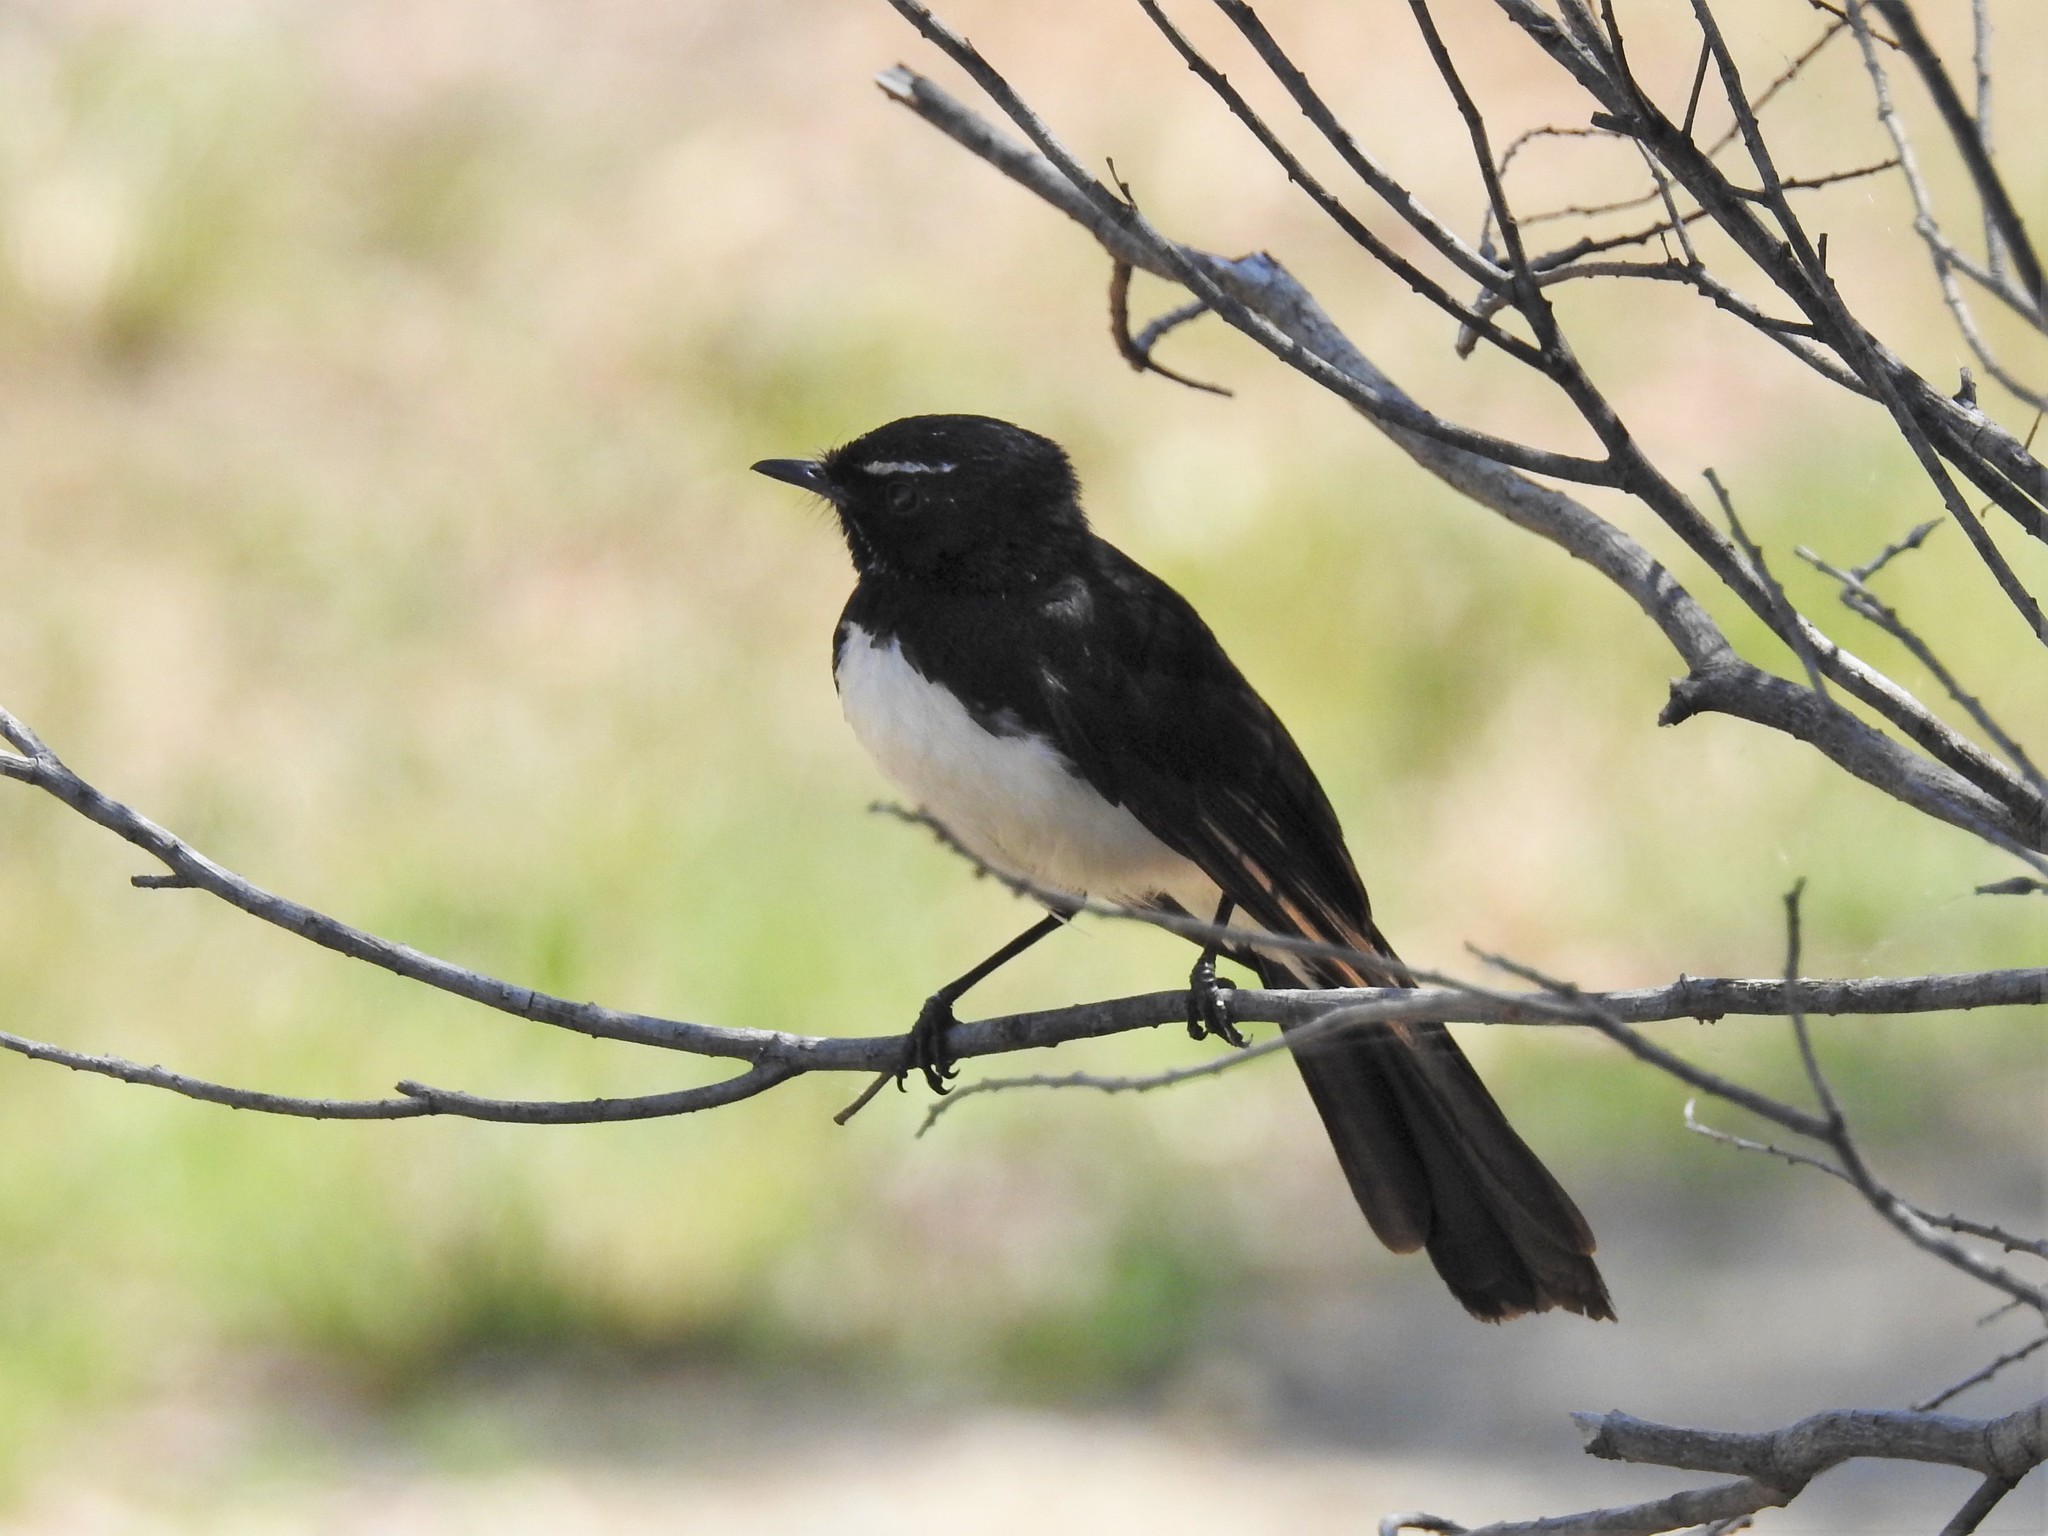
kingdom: Animalia
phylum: Chordata
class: Aves
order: Passeriformes
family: Rhipiduridae
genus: Rhipidura
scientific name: Rhipidura leucophrys
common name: Willie wagtail
